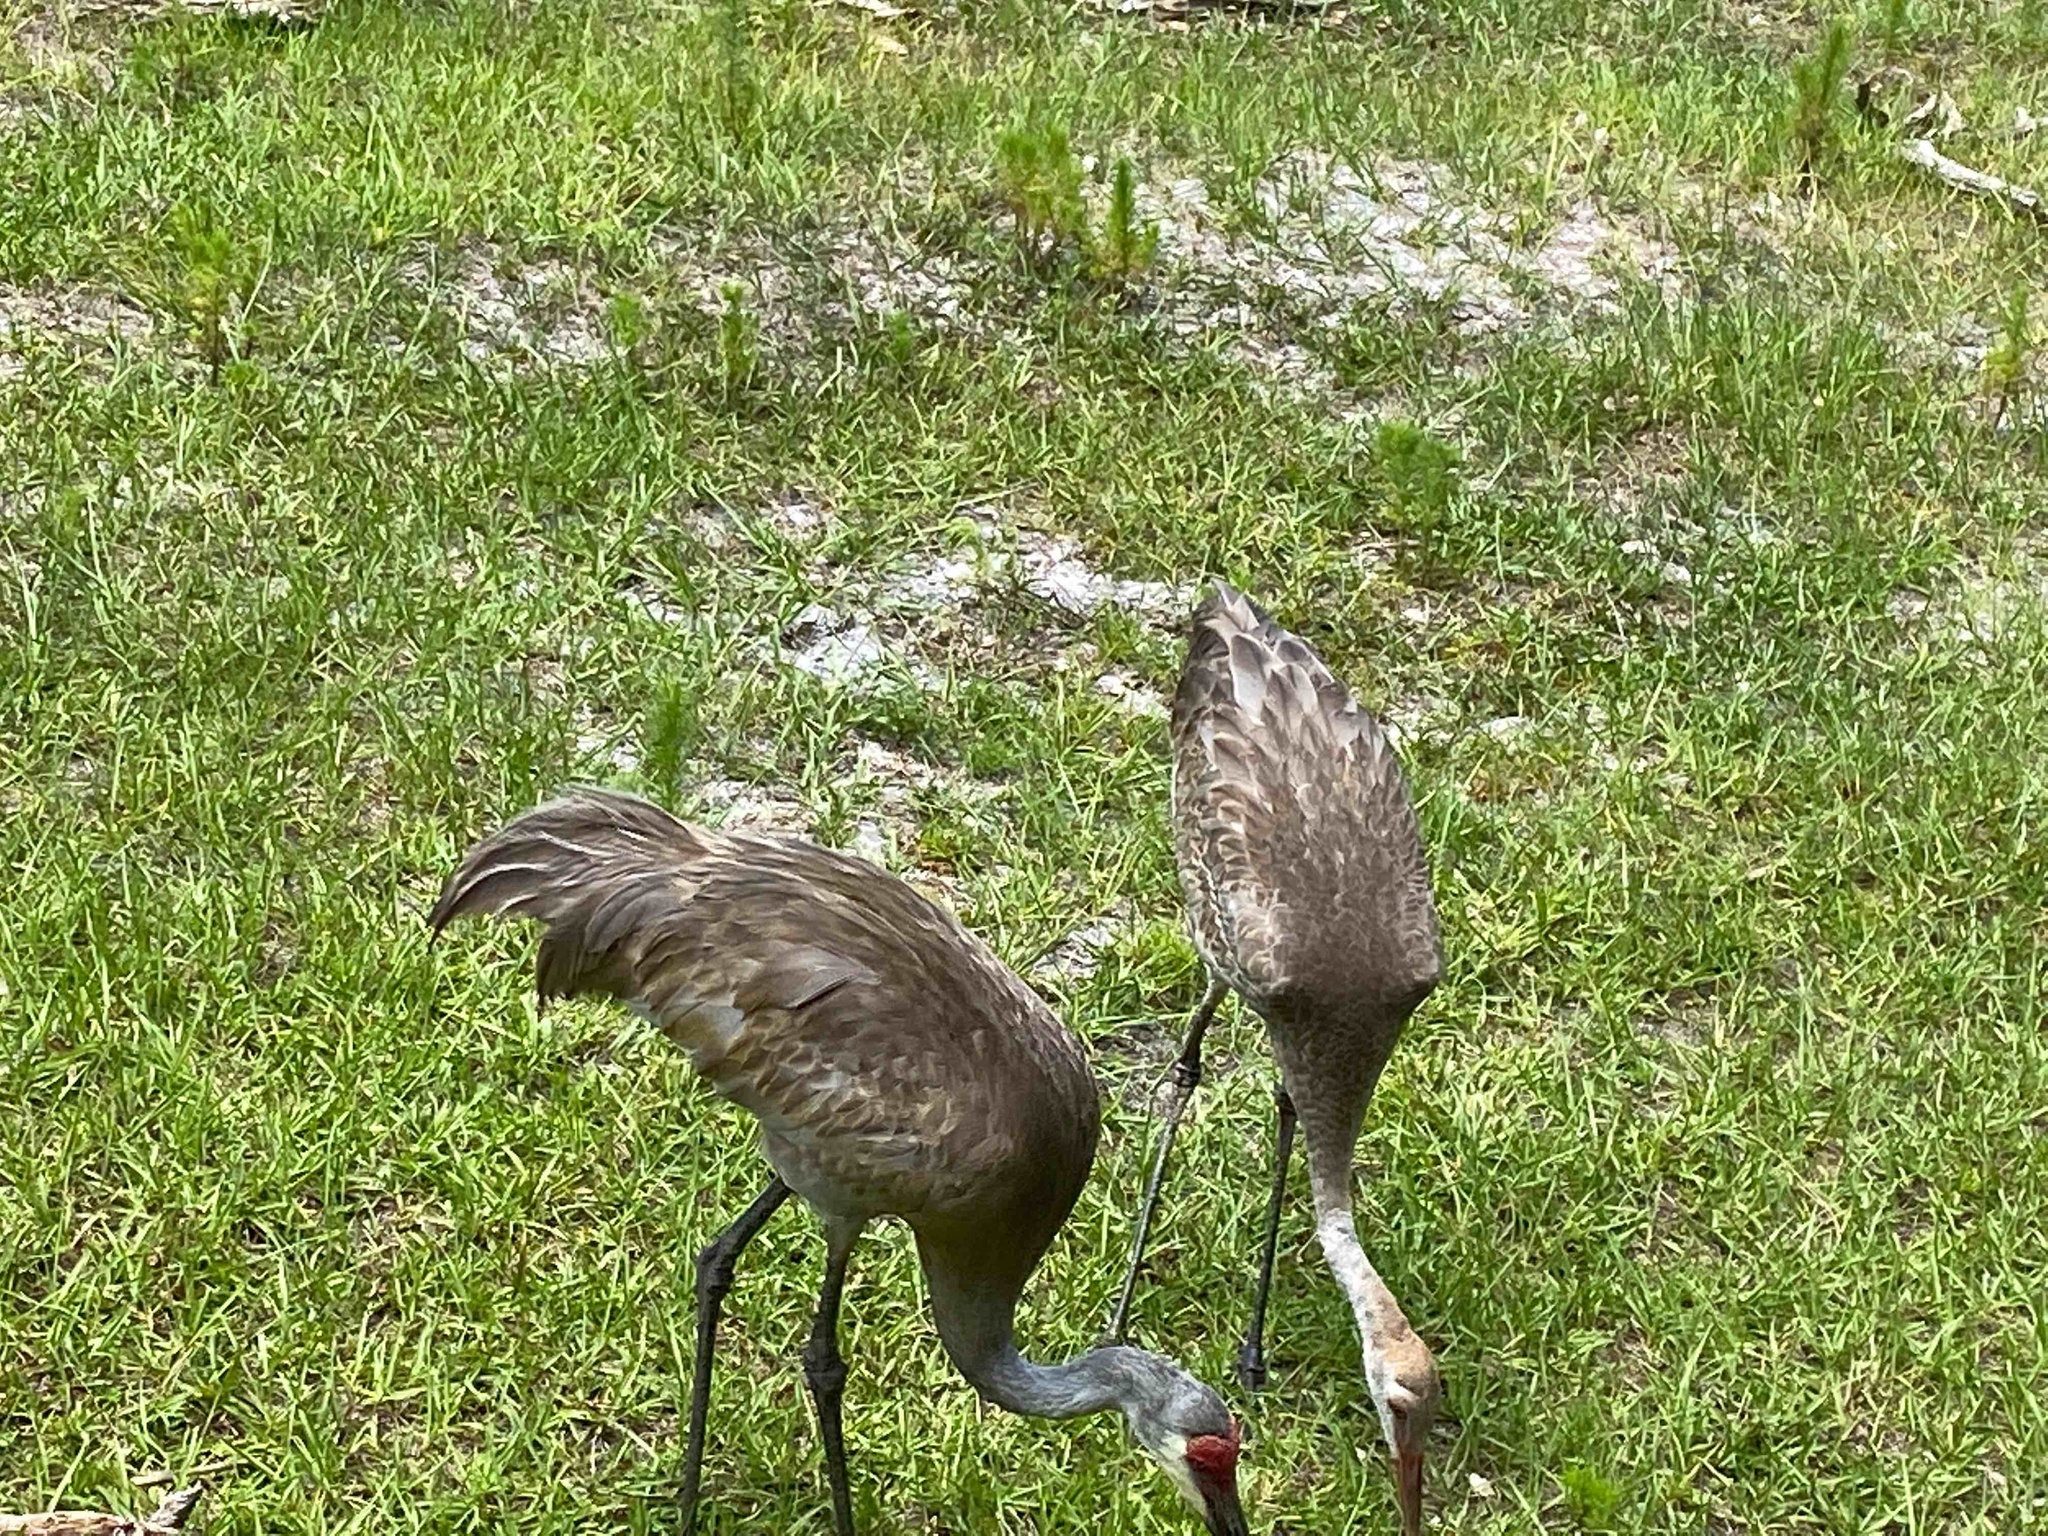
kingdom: Animalia
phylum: Chordata
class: Aves
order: Gruiformes
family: Gruidae
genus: Grus
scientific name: Grus canadensis
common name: Sandhill crane
